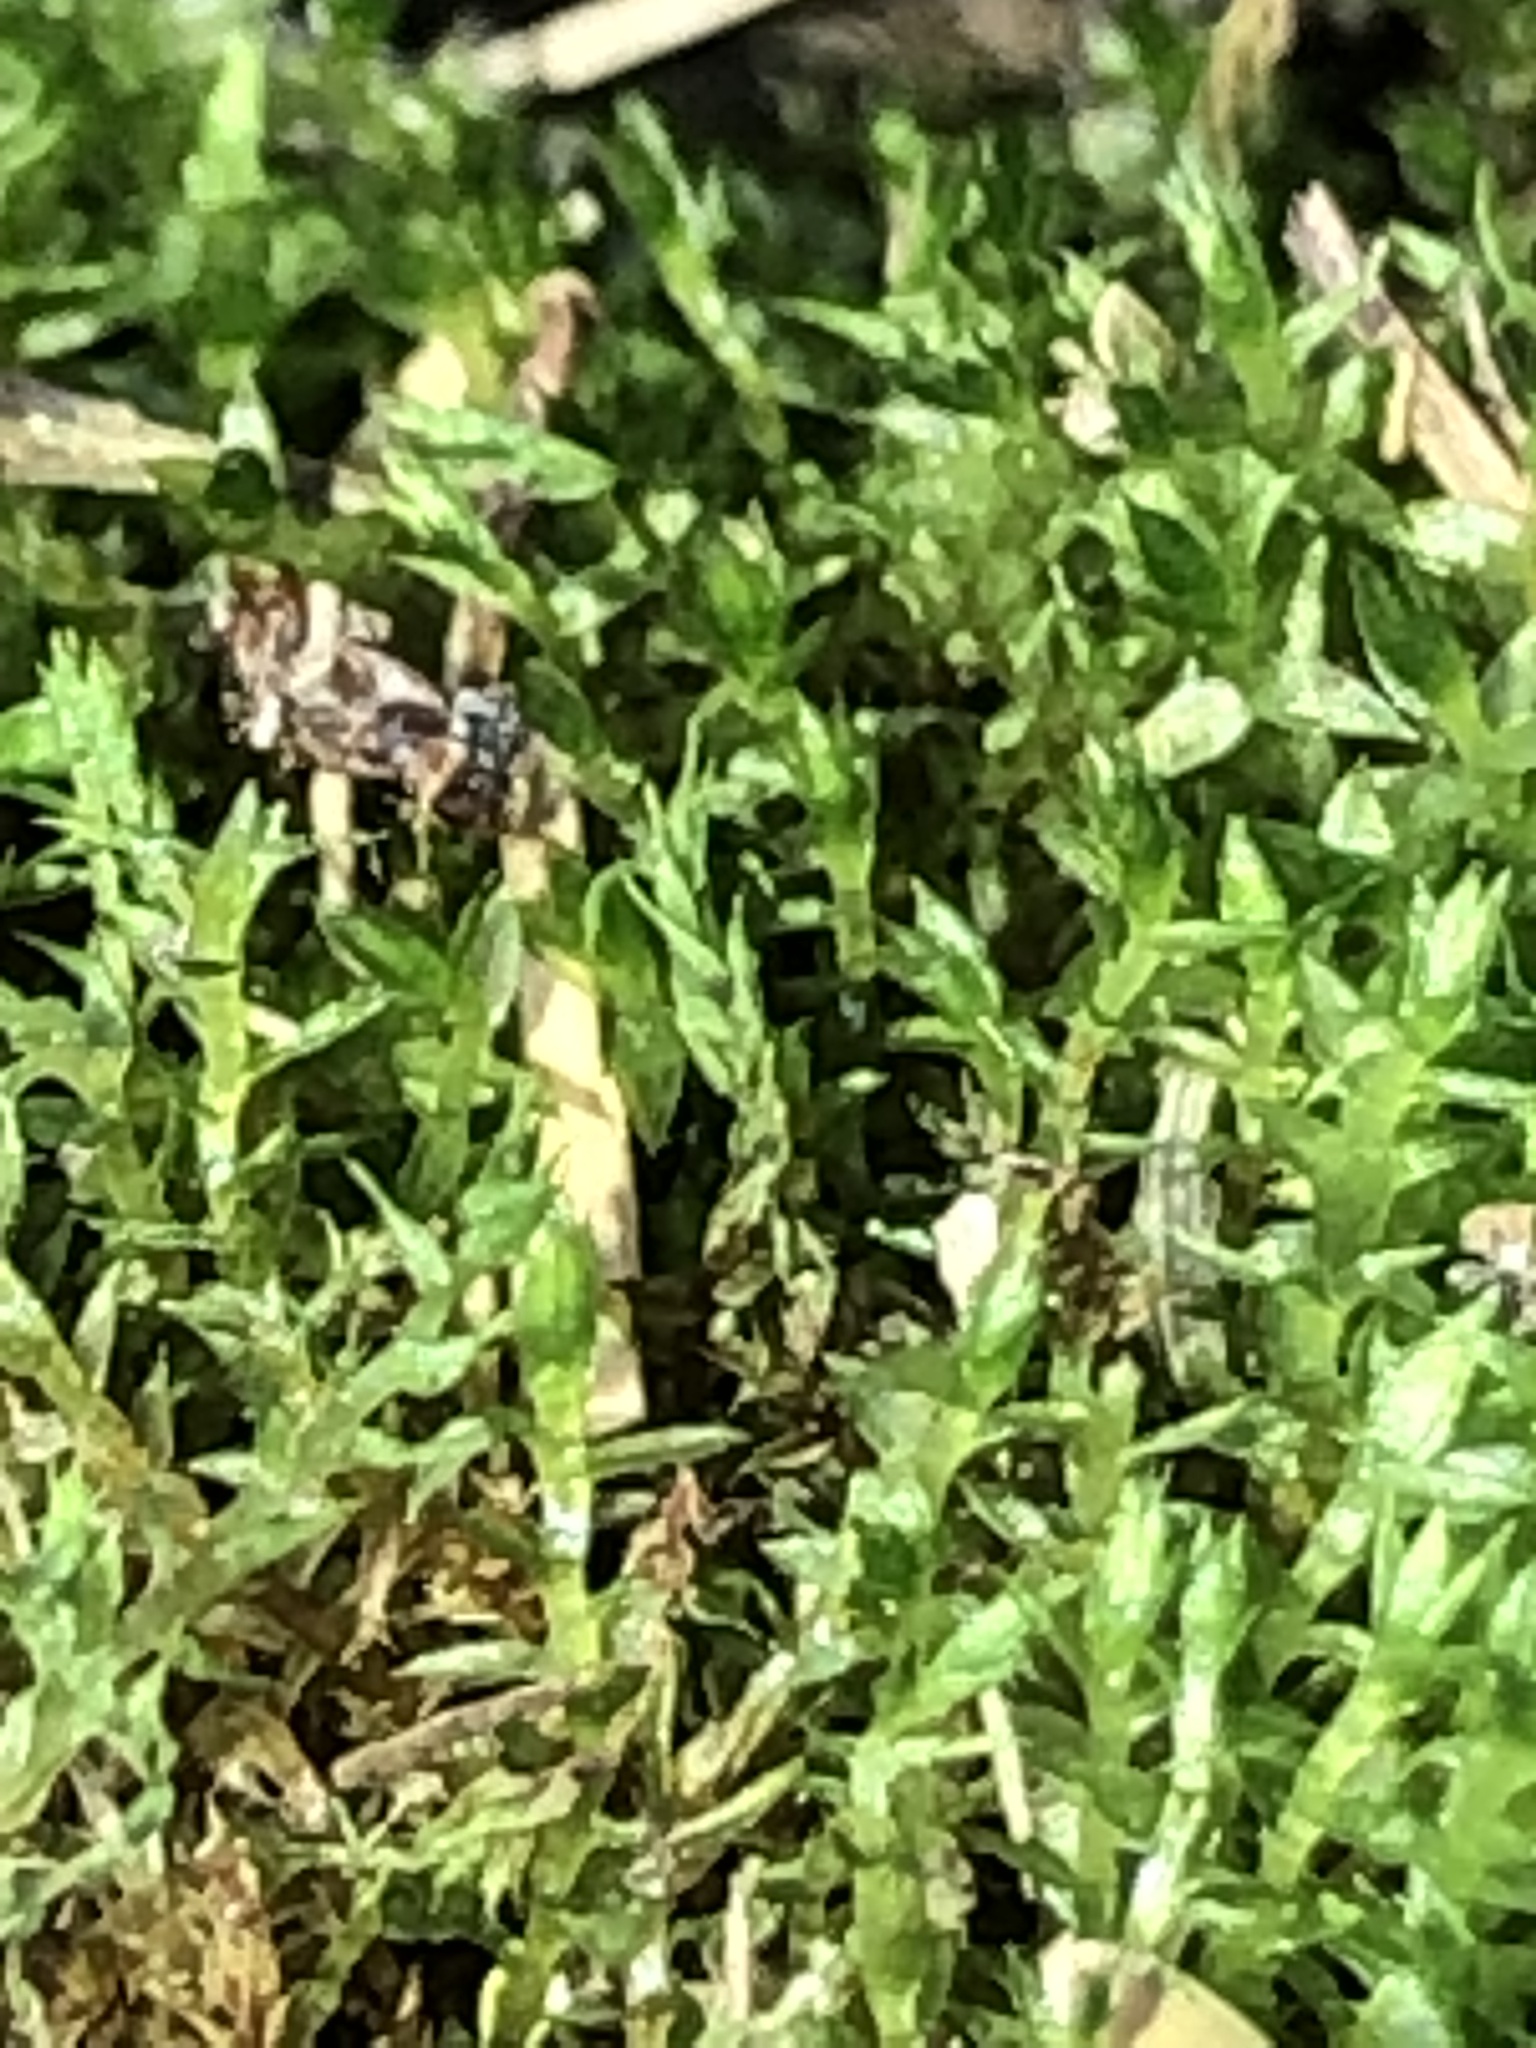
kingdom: Plantae
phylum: Bryophyta
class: Bryopsida
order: Hypnales
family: Amblystegiaceae
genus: Hygroamblystegium
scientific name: Hygroamblystegium varium
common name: Willow feather-moss
